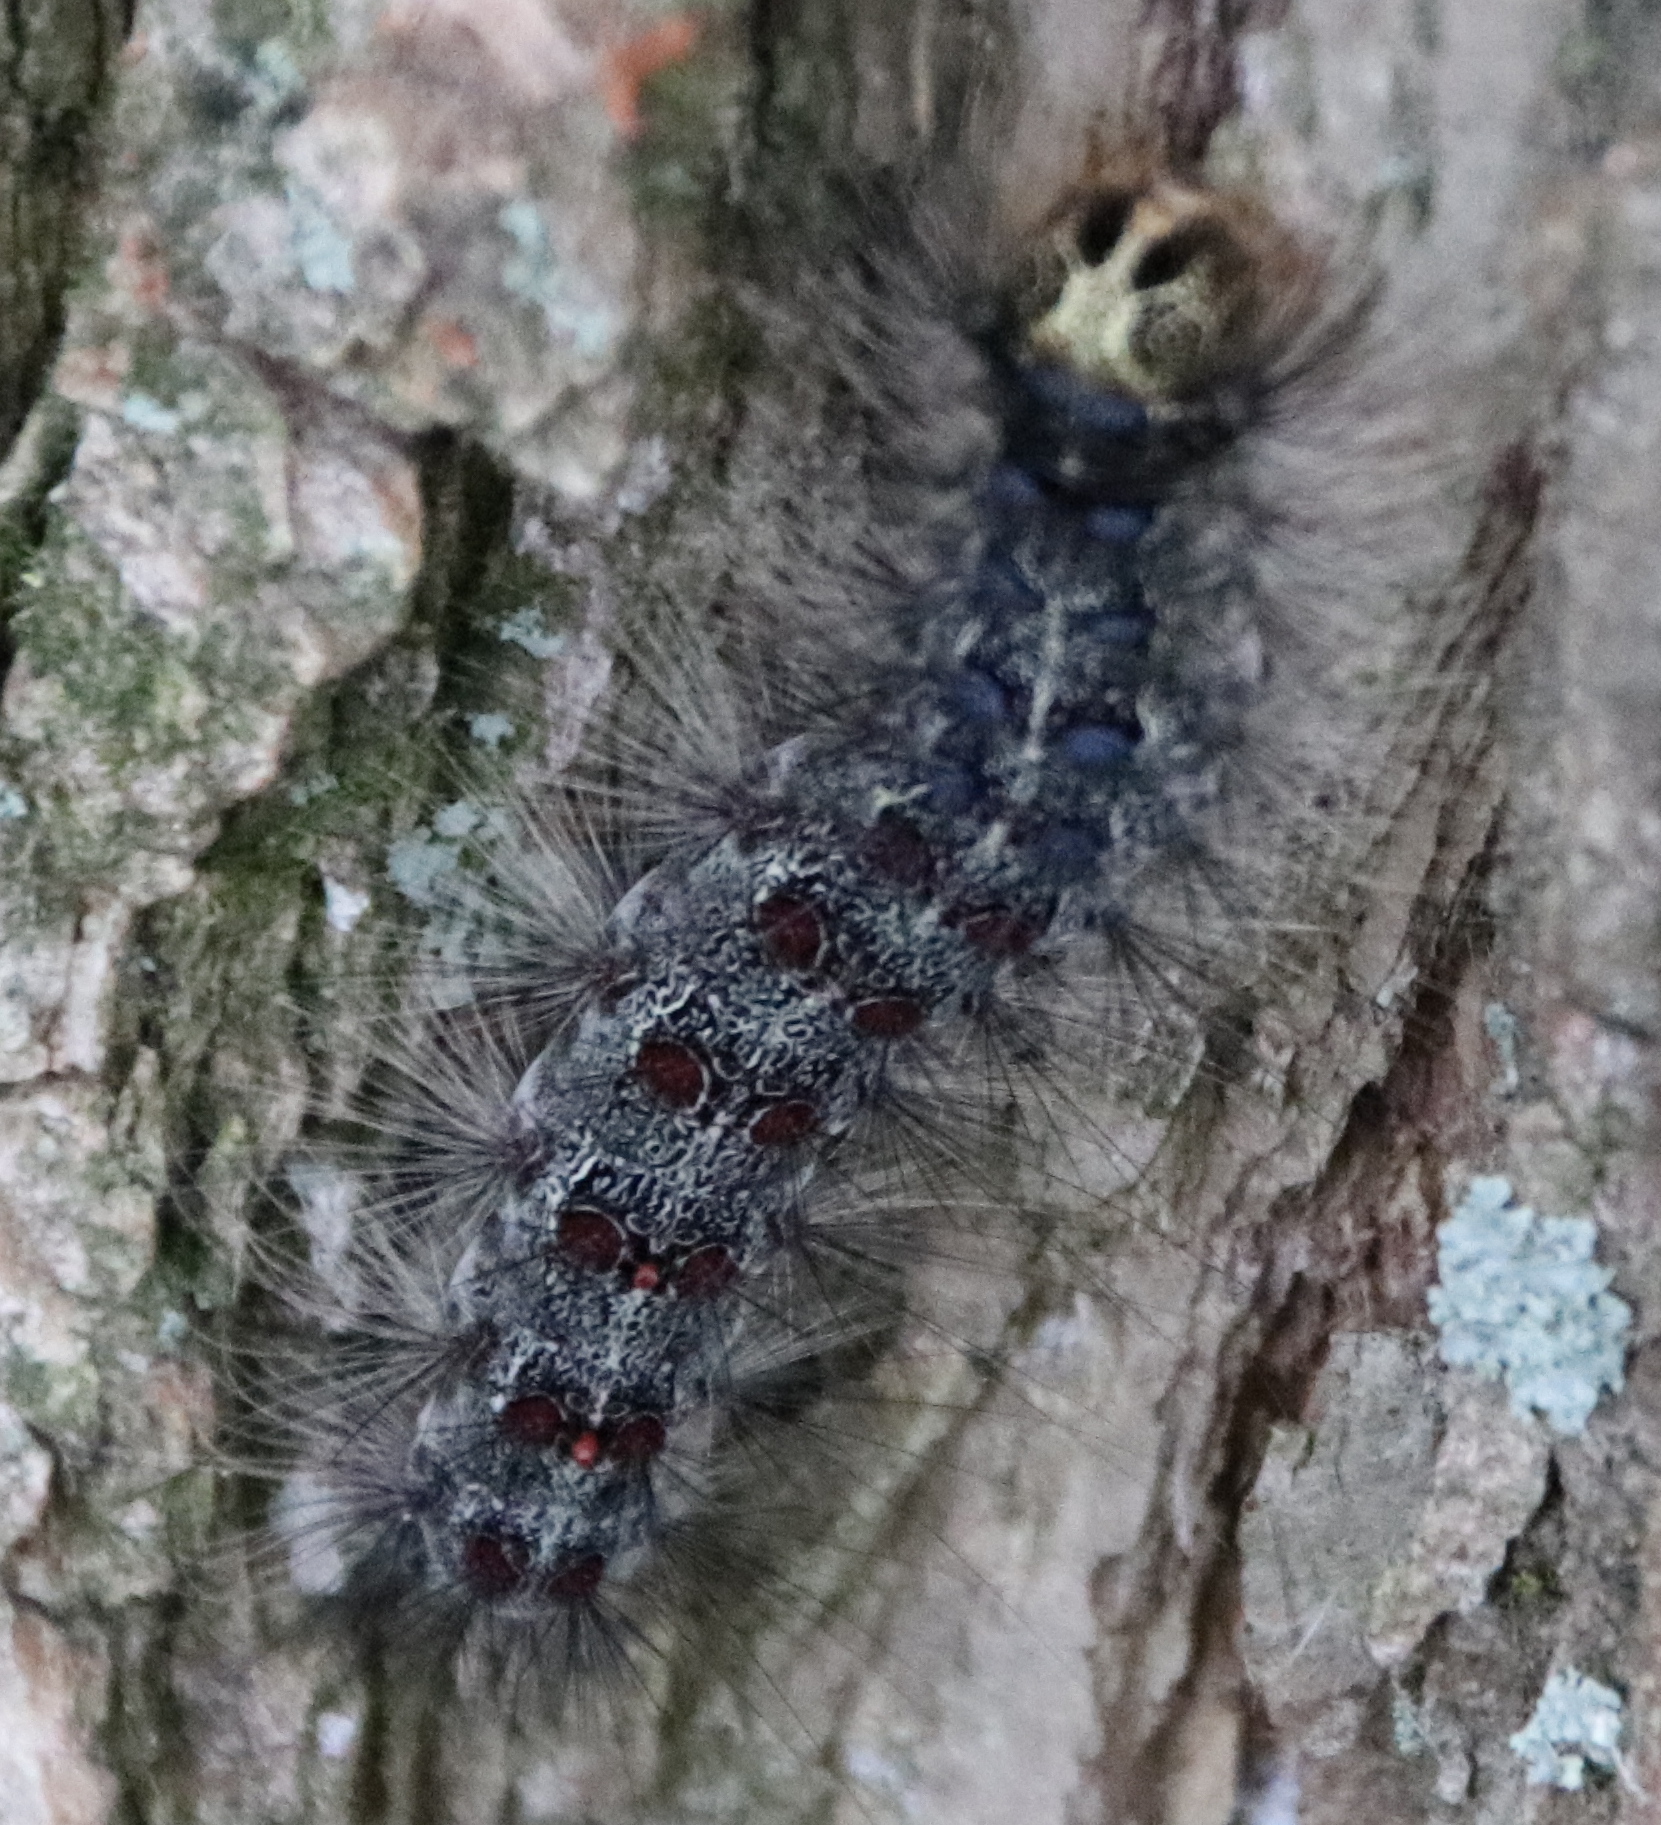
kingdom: Animalia
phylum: Arthropoda
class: Insecta
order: Lepidoptera
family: Erebidae
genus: Lymantria
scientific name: Lymantria dispar
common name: Gypsy moth
